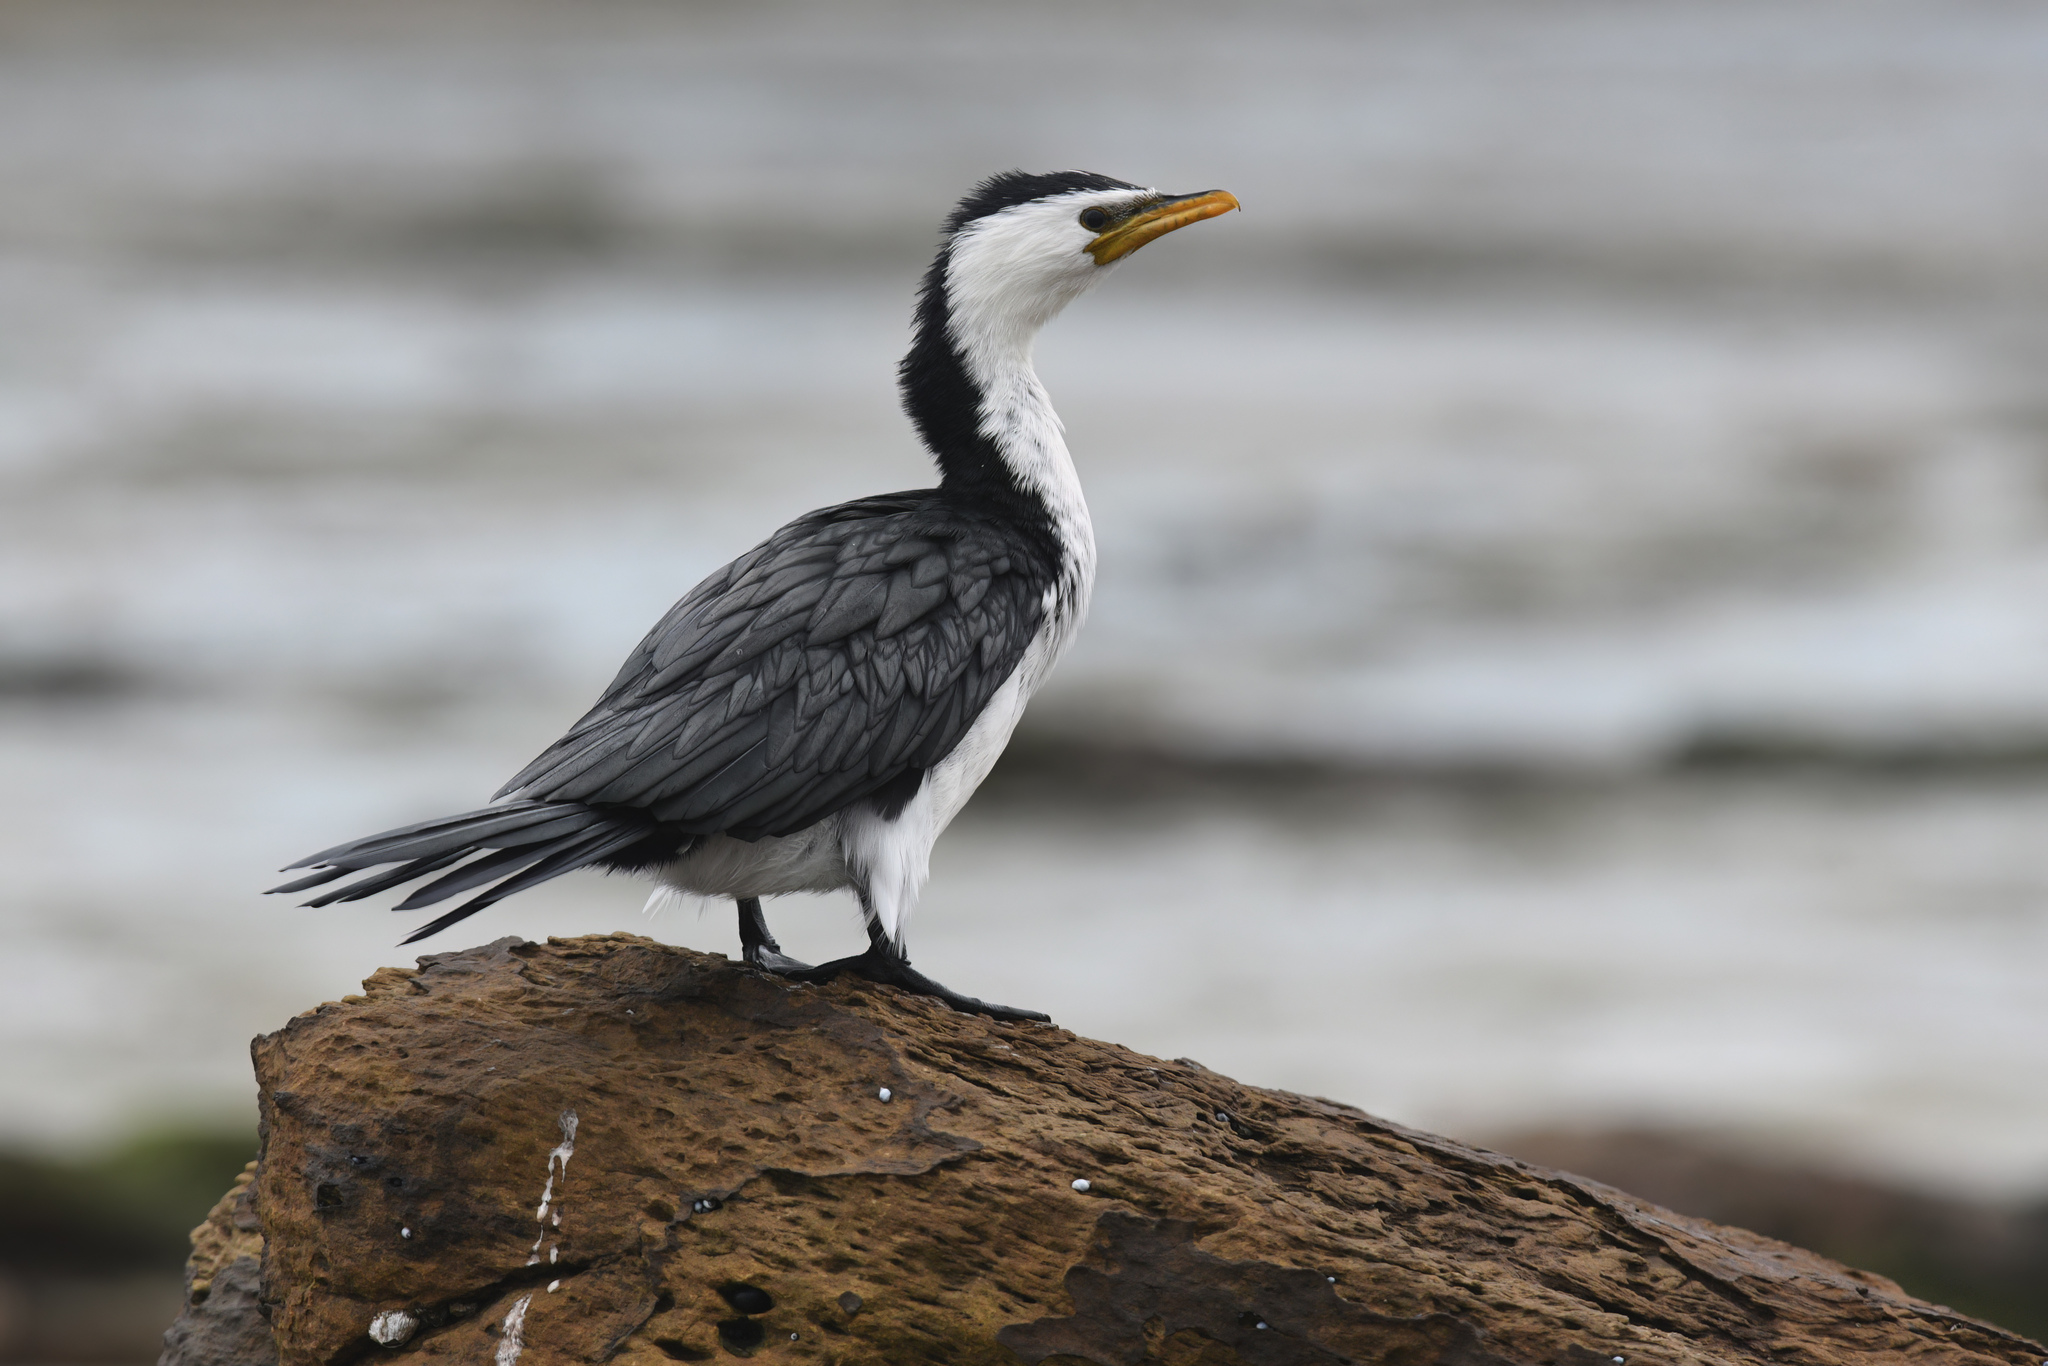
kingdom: Animalia
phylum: Chordata
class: Aves
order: Suliformes
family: Phalacrocoracidae
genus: Microcarbo
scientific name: Microcarbo melanoleucos
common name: Little pied cormorant
